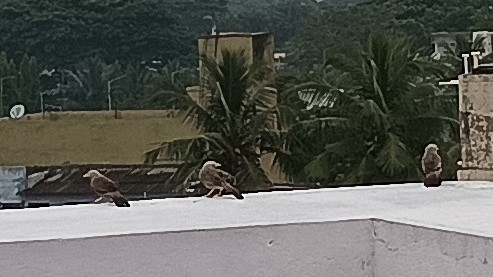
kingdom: Animalia
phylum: Chordata
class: Aves
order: Passeriformes
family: Leiothrichidae
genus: Turdoides
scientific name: Turdoides affinis
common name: Yellow-billed babbler
